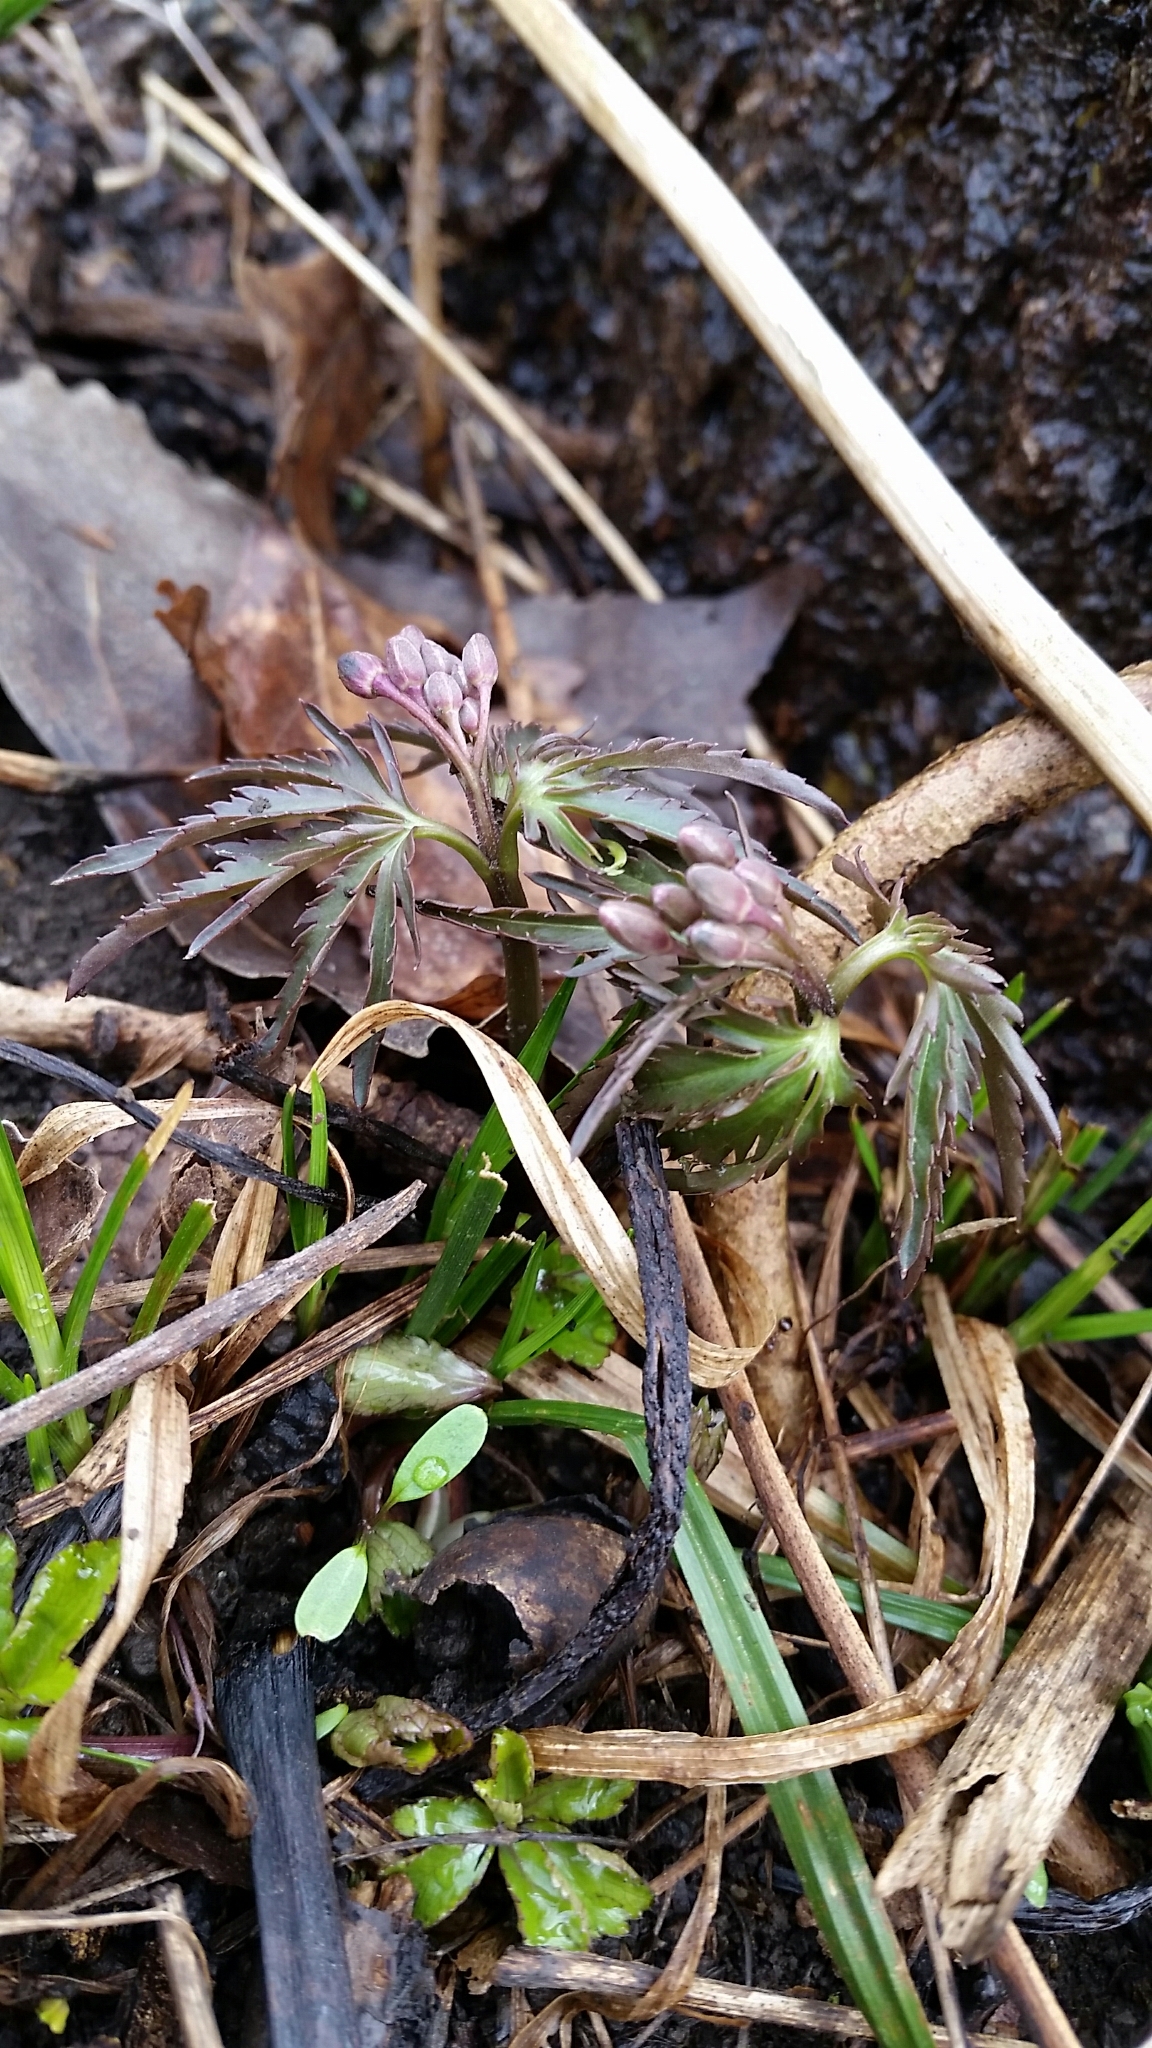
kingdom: Plantae
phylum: Tracheophyta
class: Magnoliopsida
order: Brassicales
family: Brassicaceae
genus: Cardamine
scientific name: Cardamine concatenata
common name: Cut-leaf toothcup
